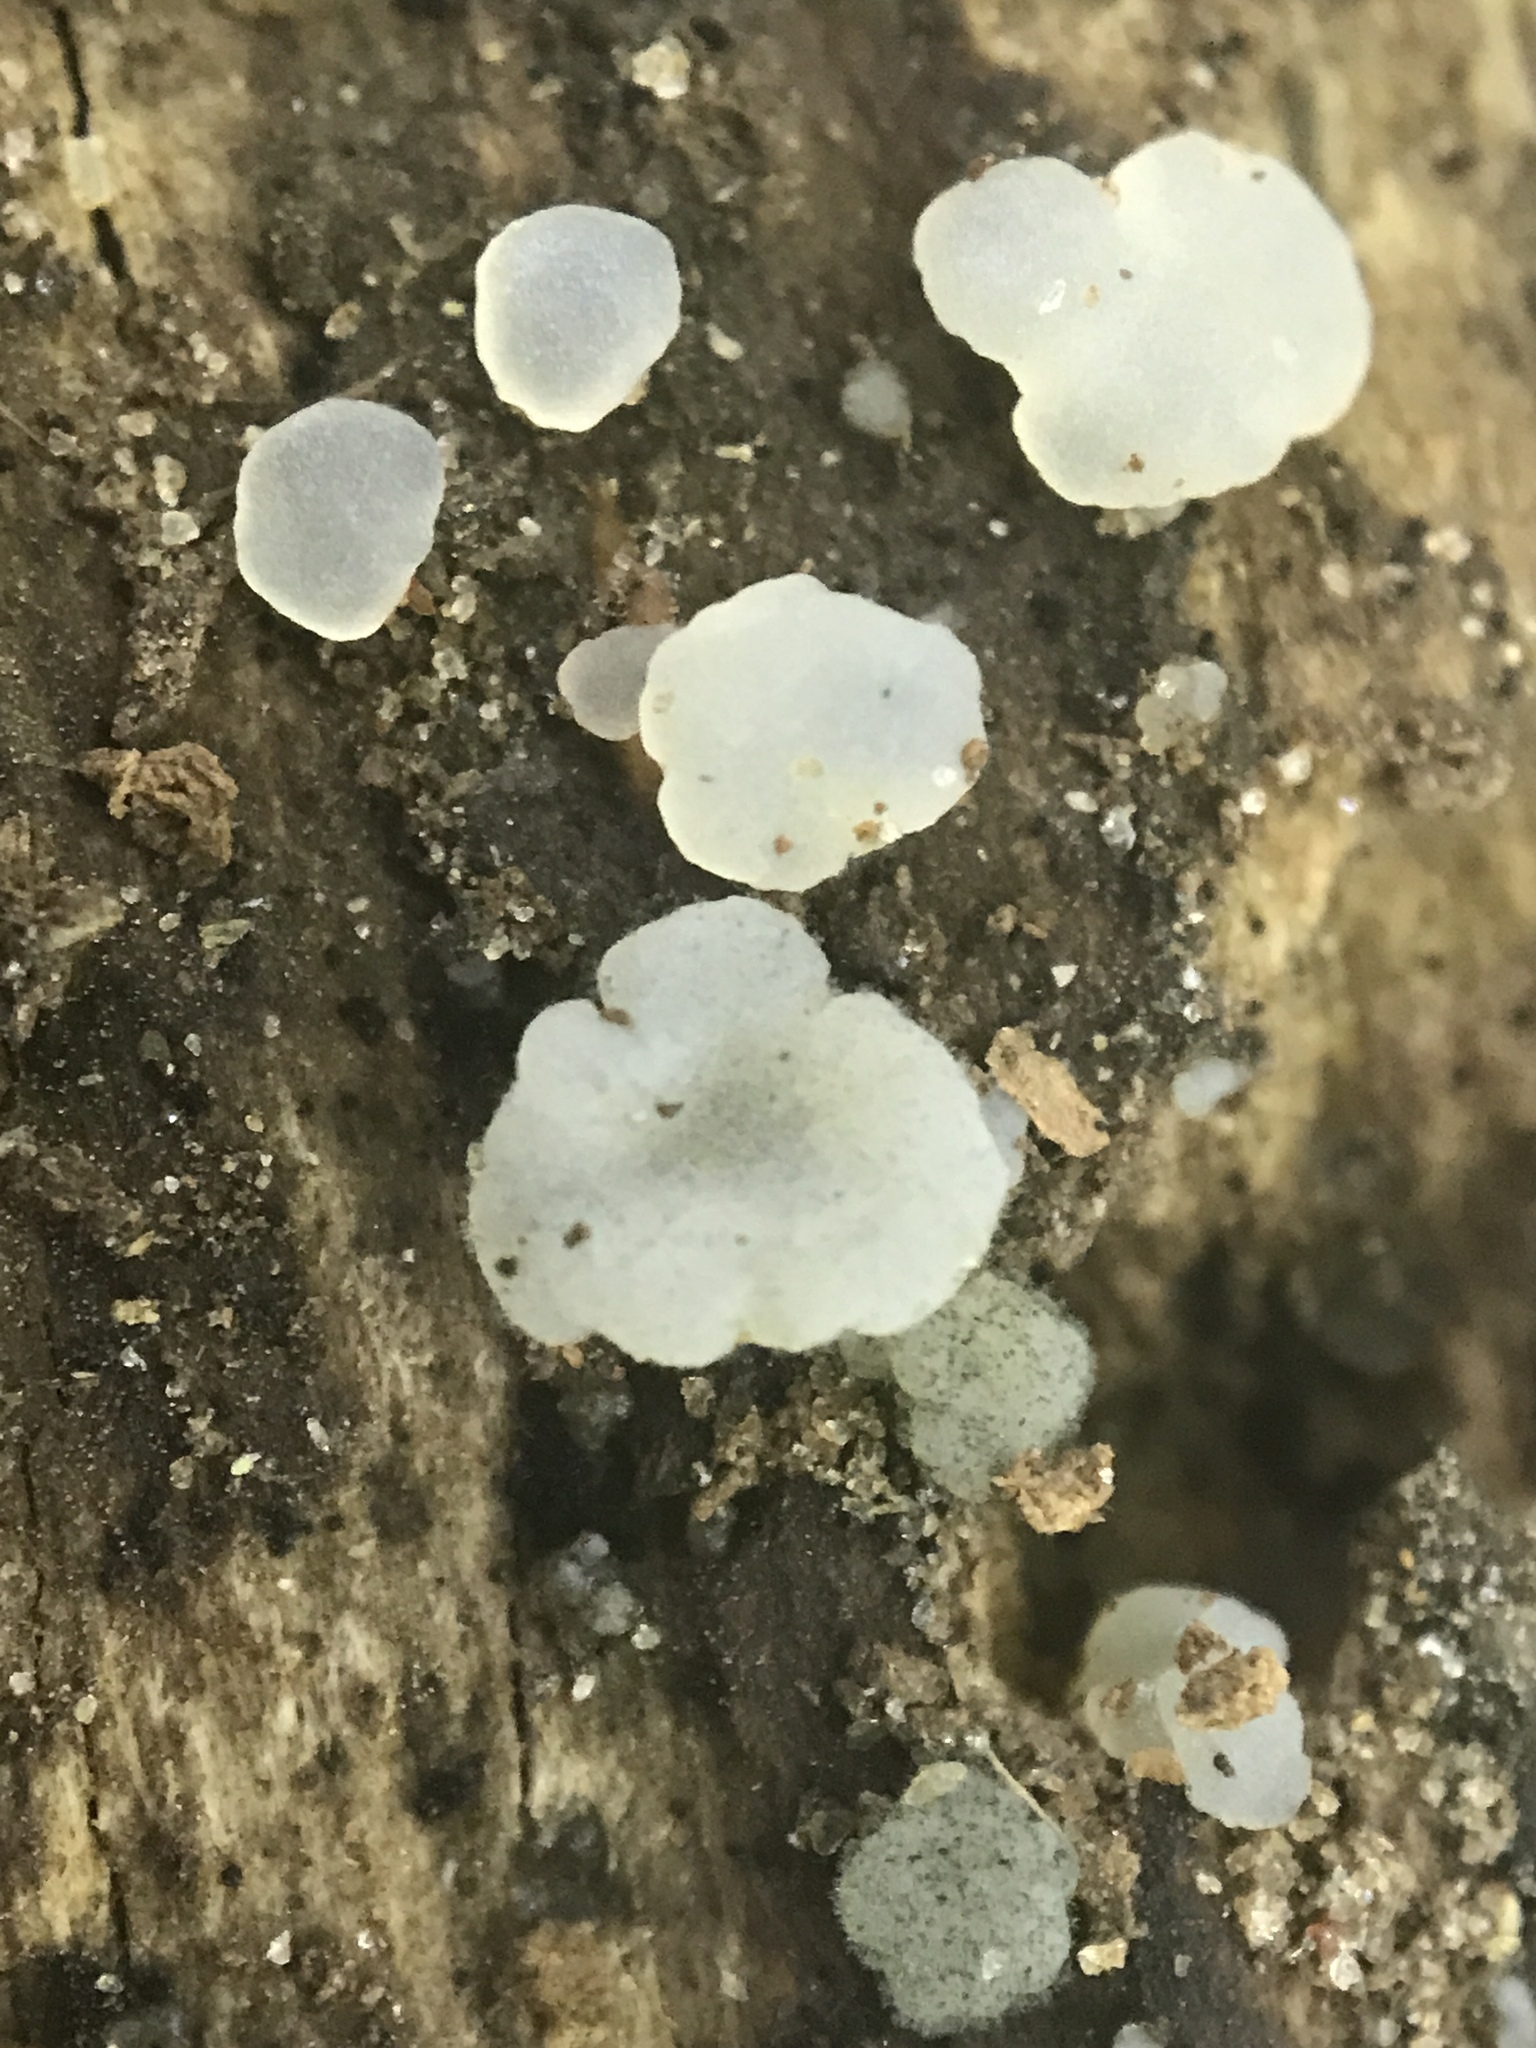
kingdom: Fungi
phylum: Basidiomycota
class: Agaricomycetes
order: Auriculariales
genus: Ductifera
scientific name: Ductifera pululahuana
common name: White jelly fungus
